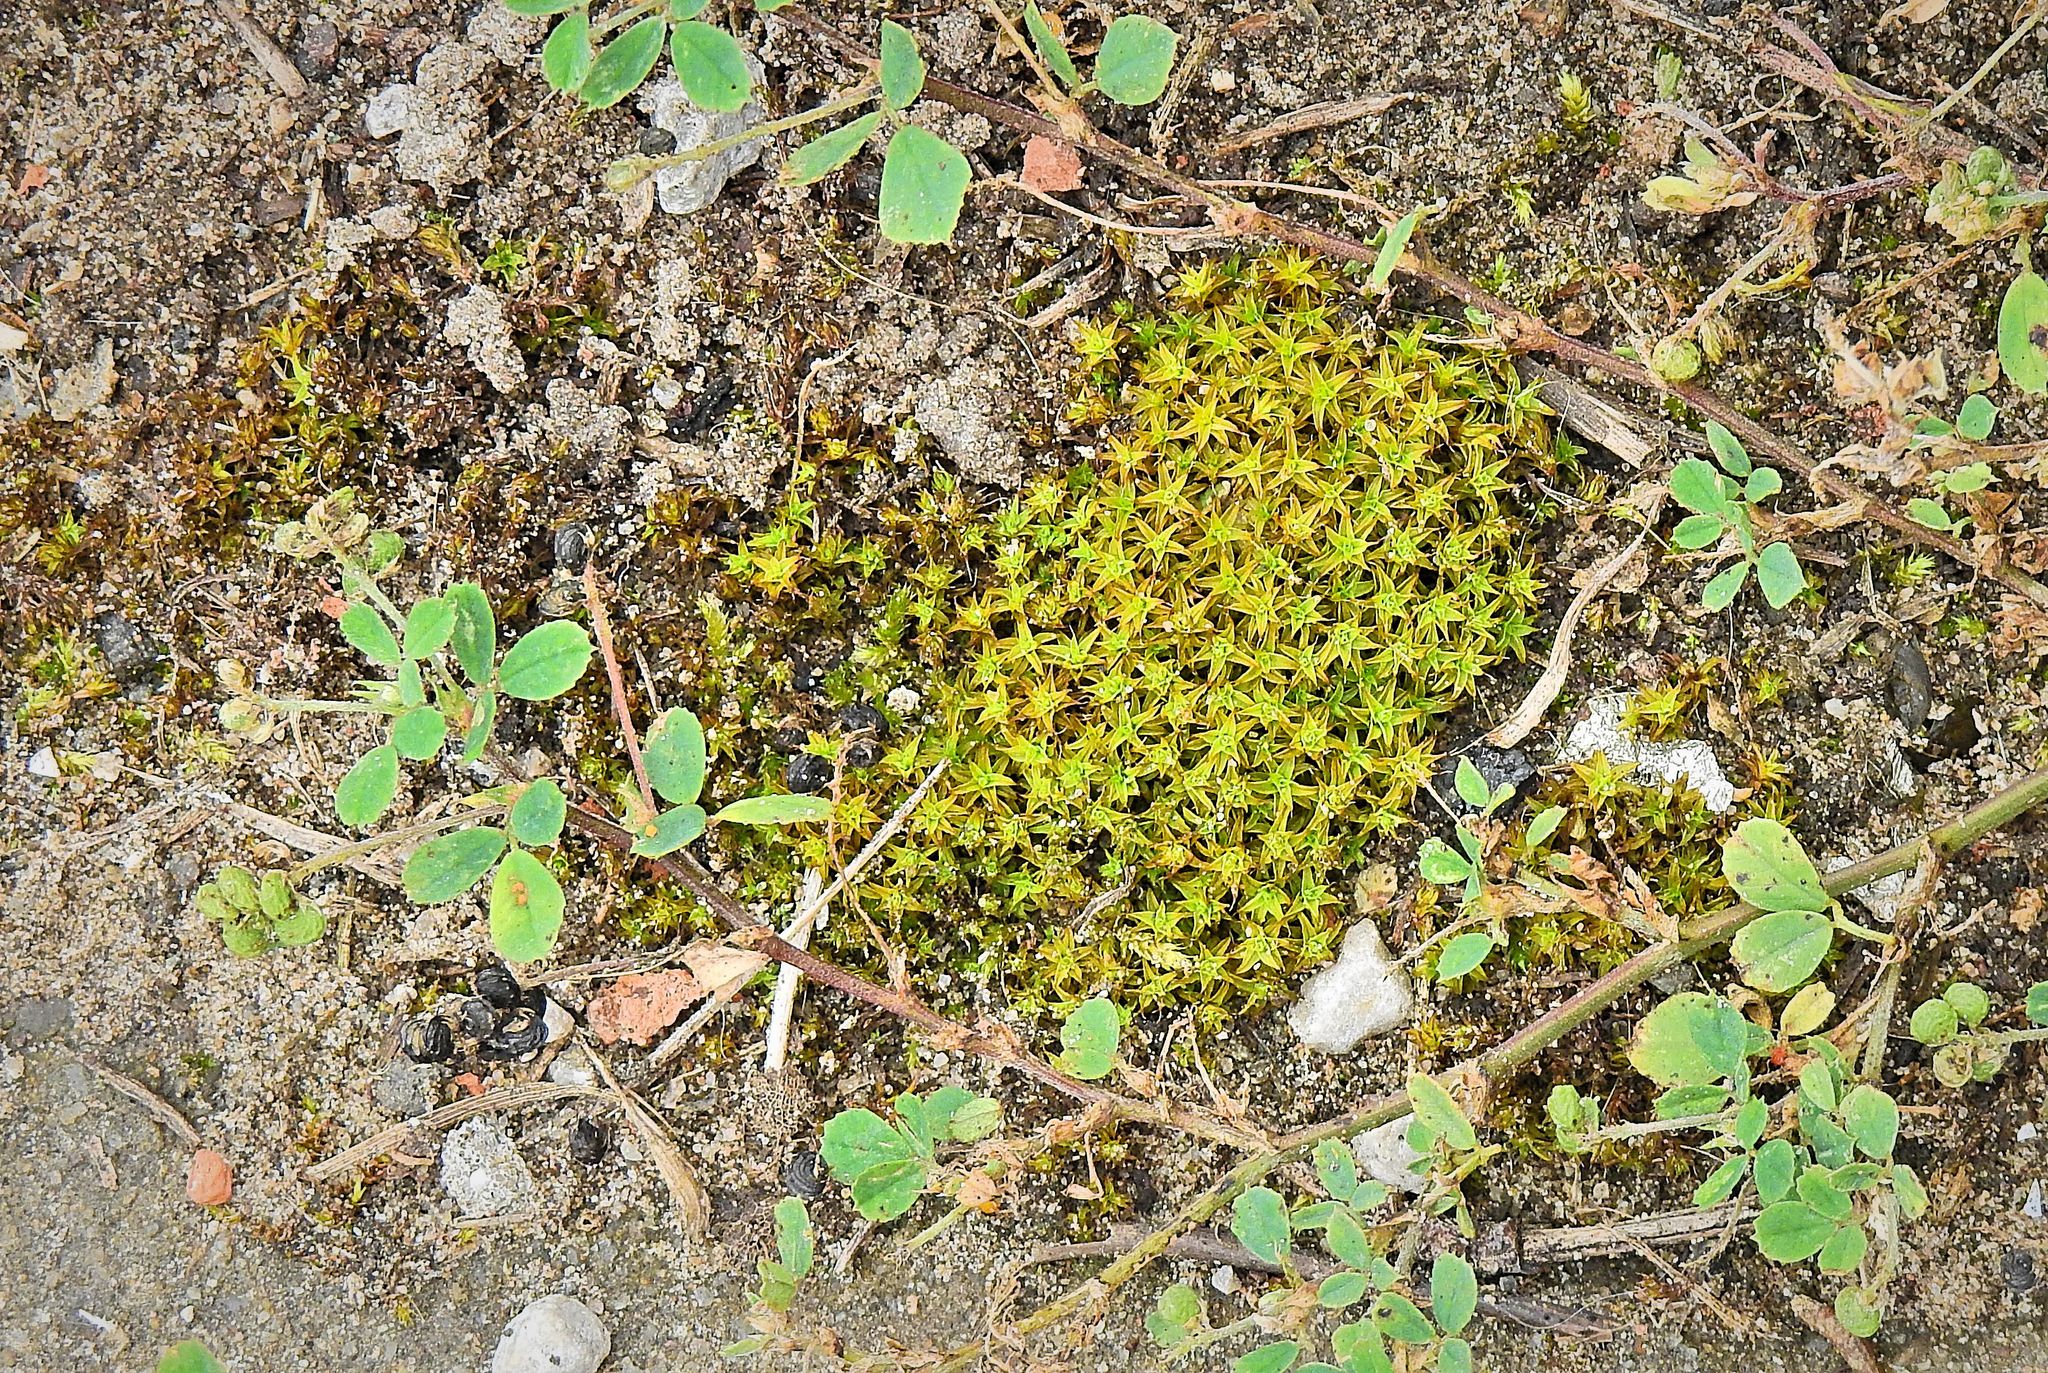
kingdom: Plantae
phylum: Bryophyta
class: Bryopsida
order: Pottiales
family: Pottiaceae
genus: Syntrichia
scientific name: Syntrichia ruralis
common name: Sidewalk screw moss
